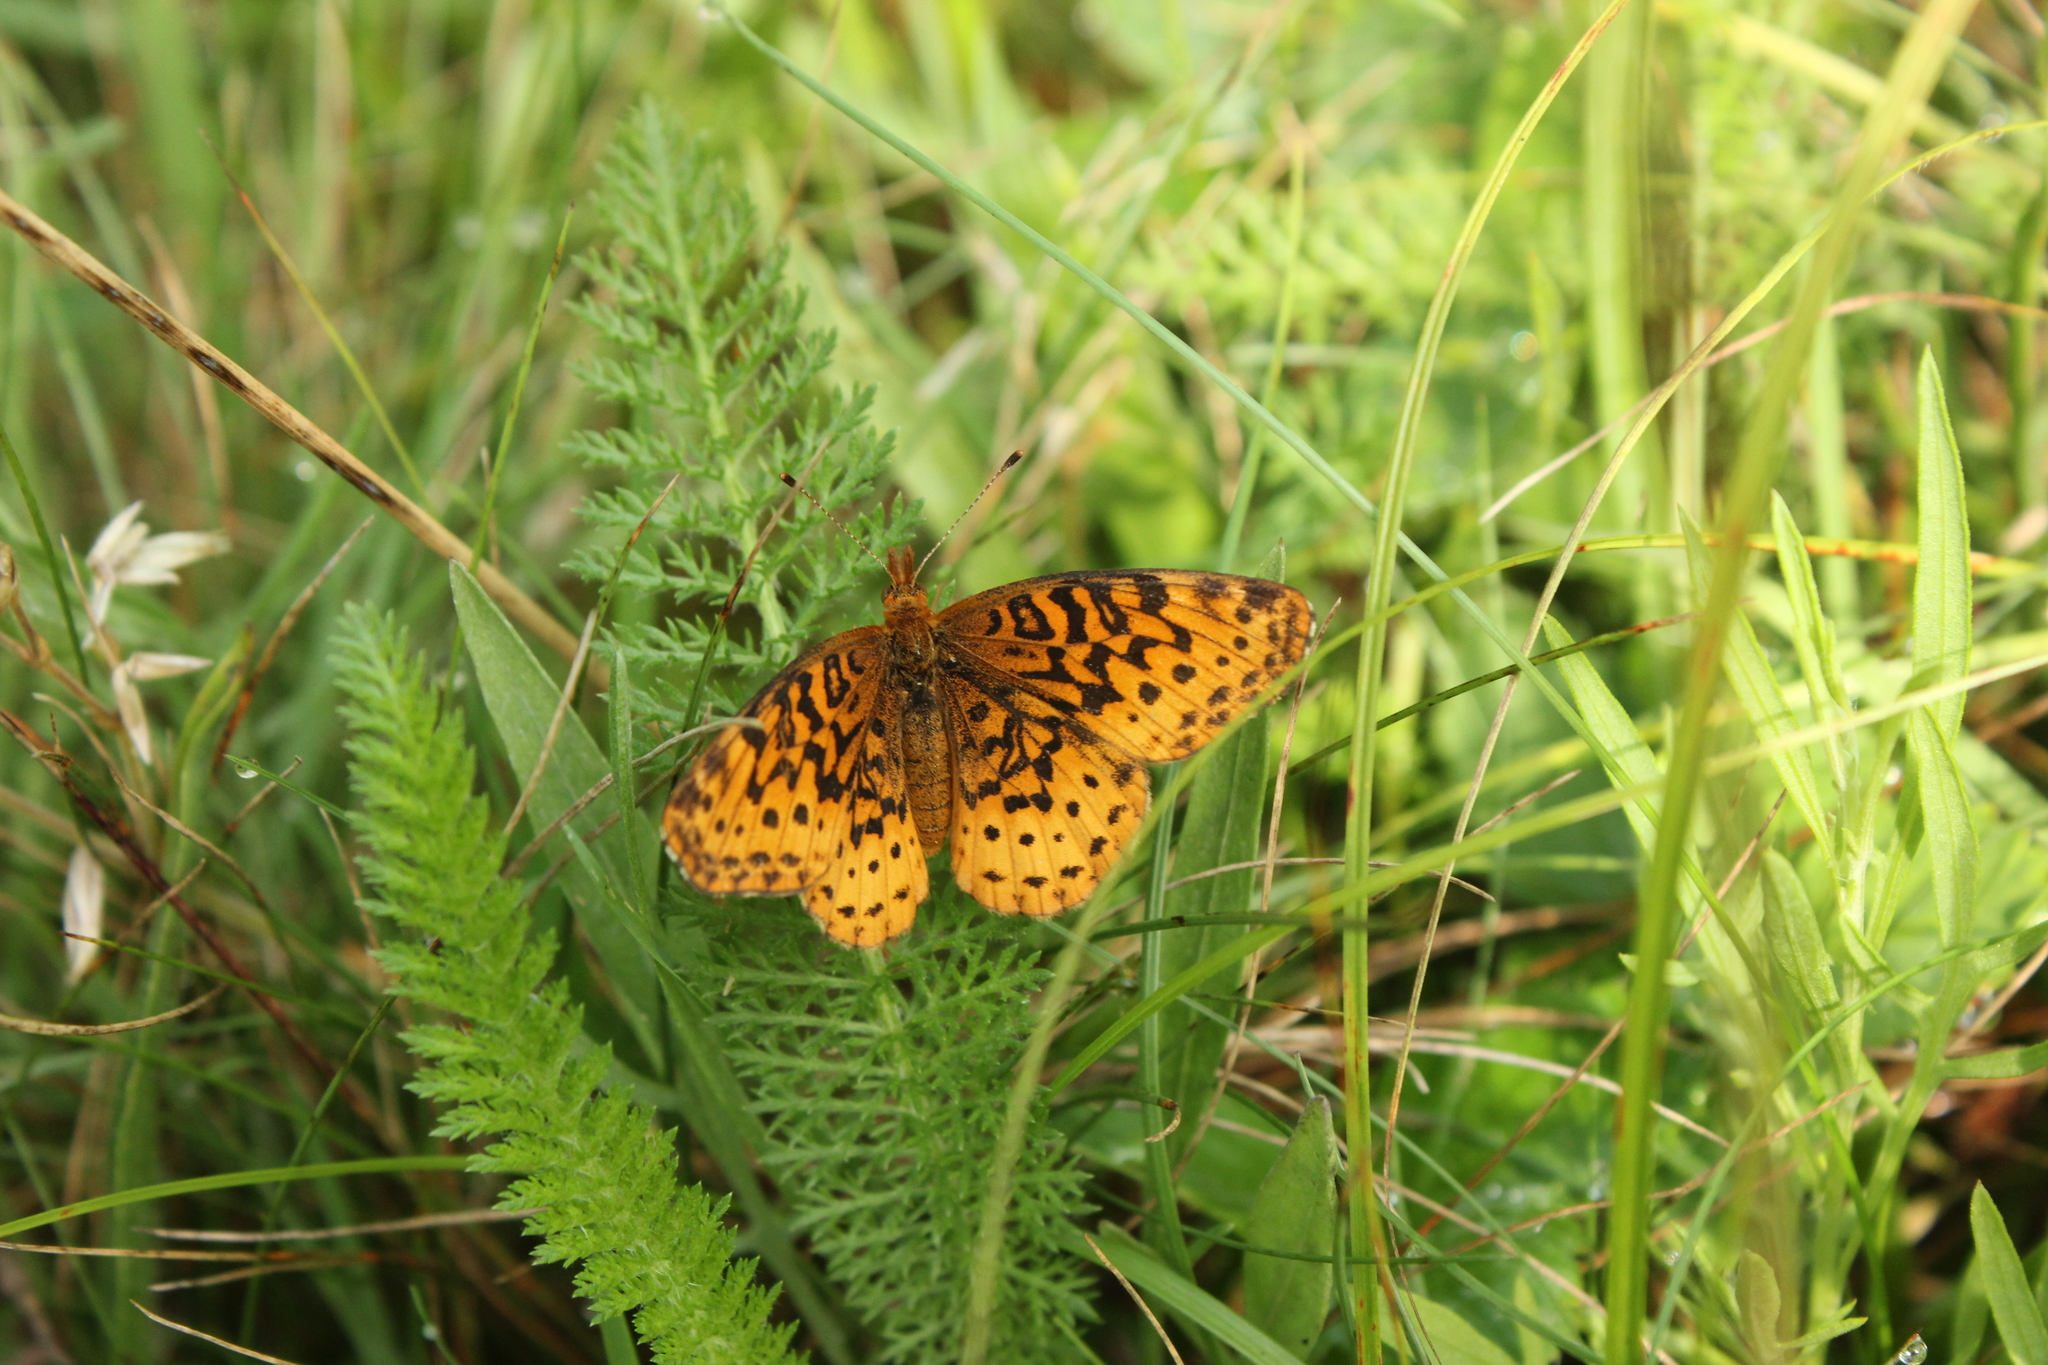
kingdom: Animalia
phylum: Arthropoda
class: Insecta
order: Lepidoptera
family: Nymphalidae
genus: Clossiana
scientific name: Clossiana toddi
